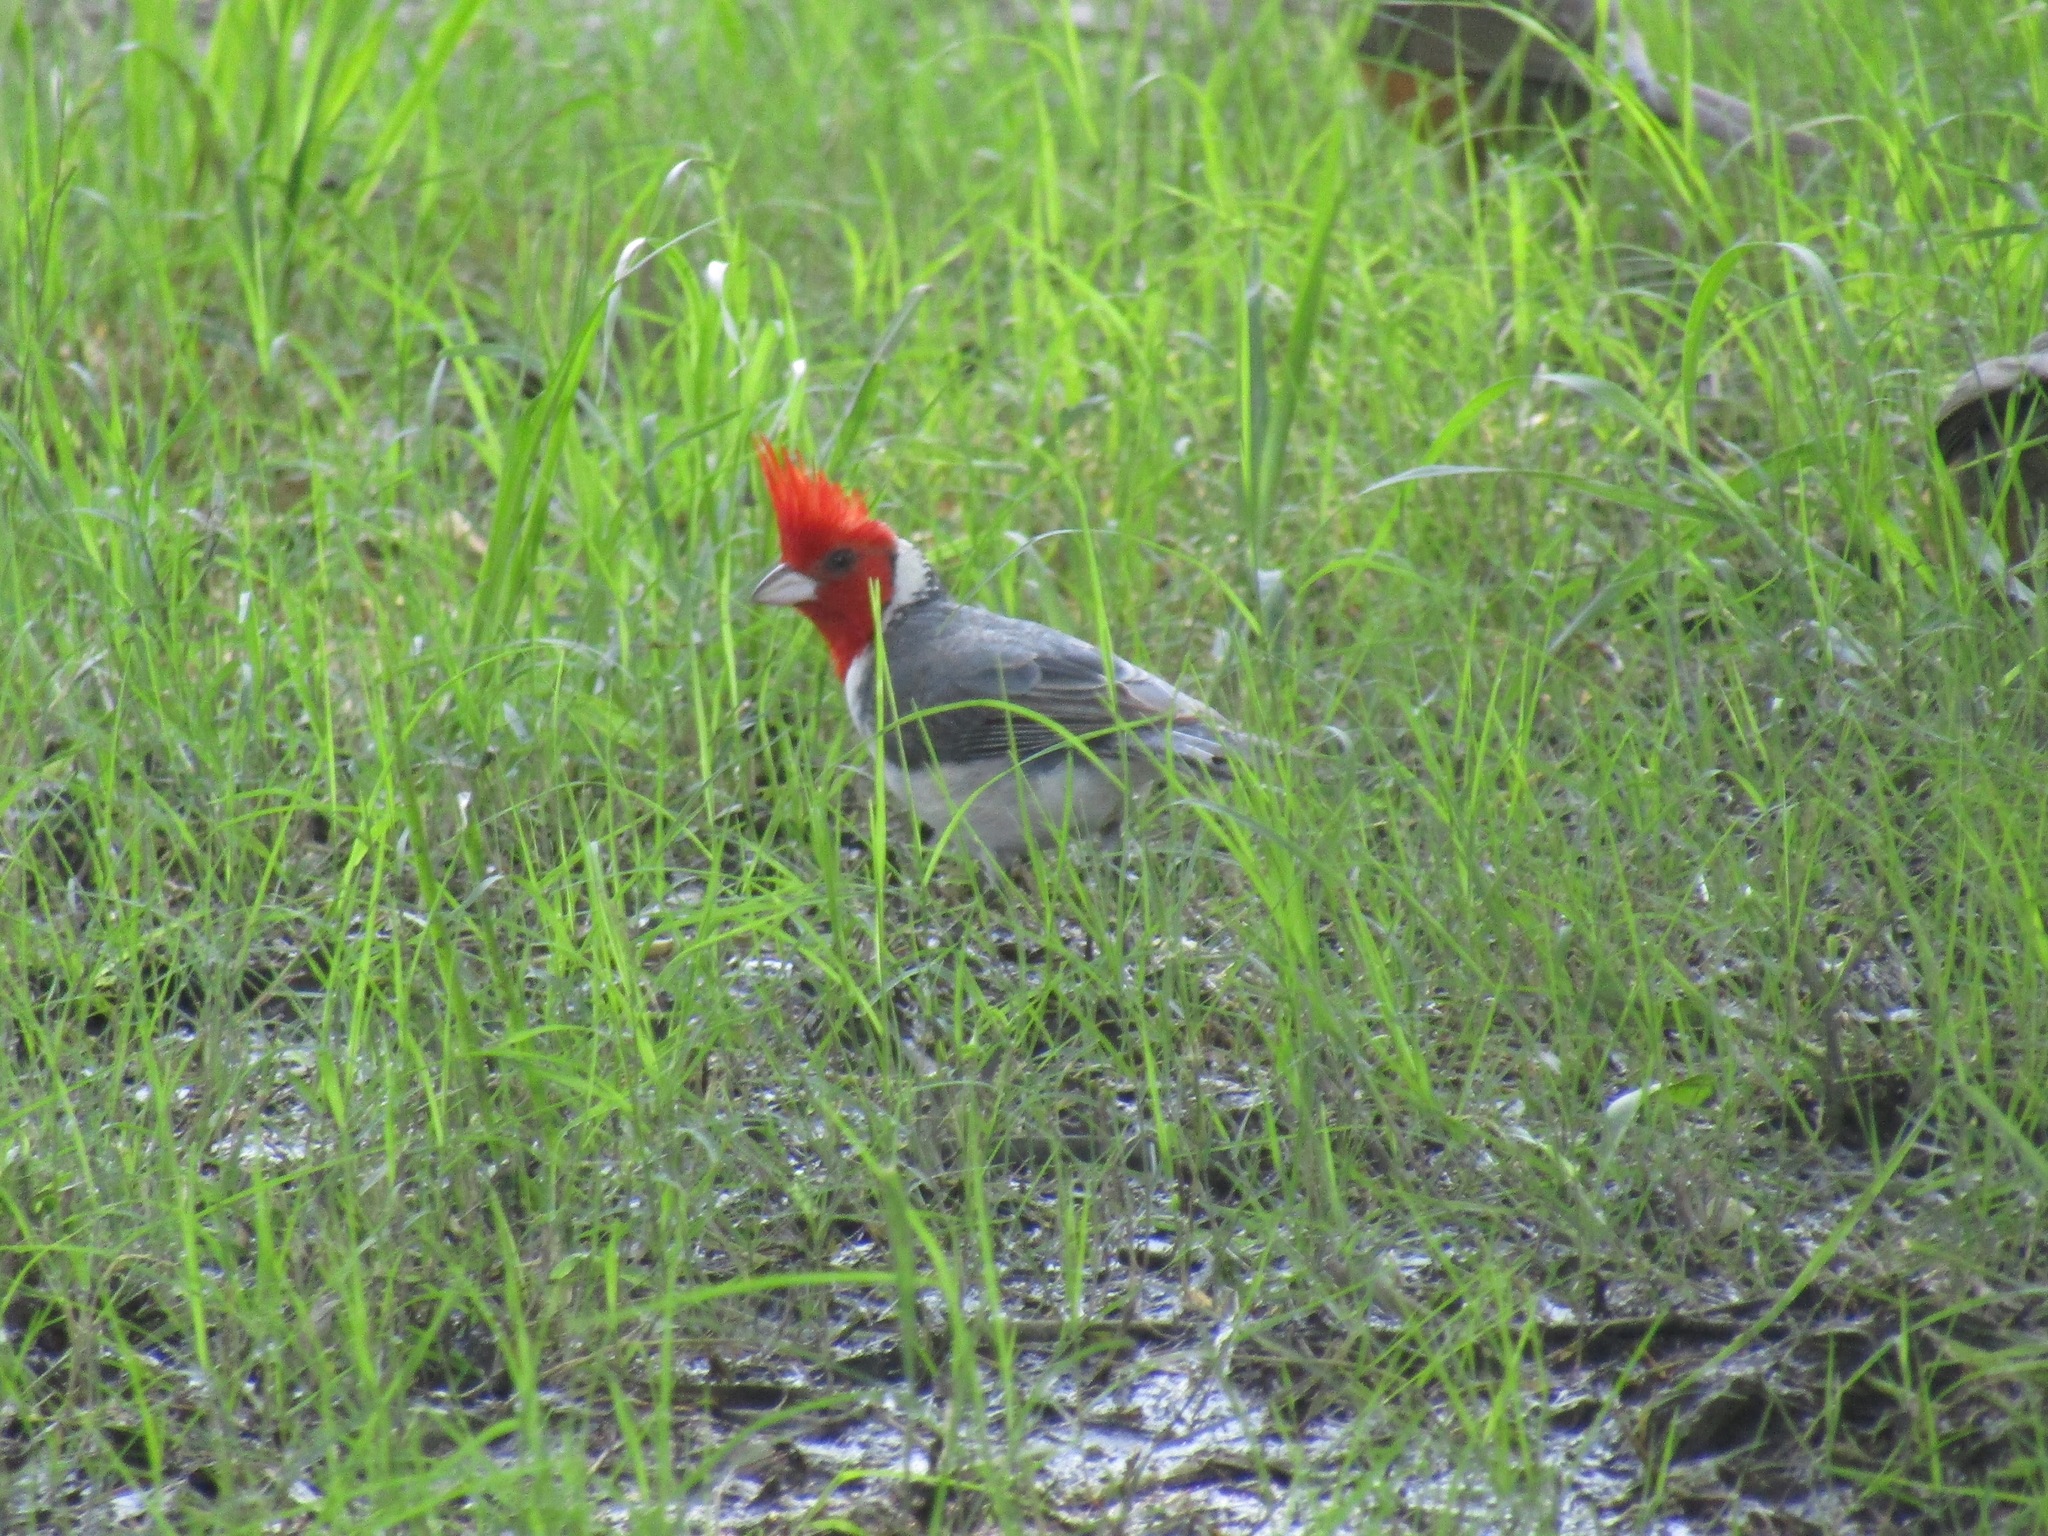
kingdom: Animalia
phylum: Chordata
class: Aves
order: Passeriformes
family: Thraupidae
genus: Paroaria
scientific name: Paroaria coronata
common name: Red-crested cardinal
